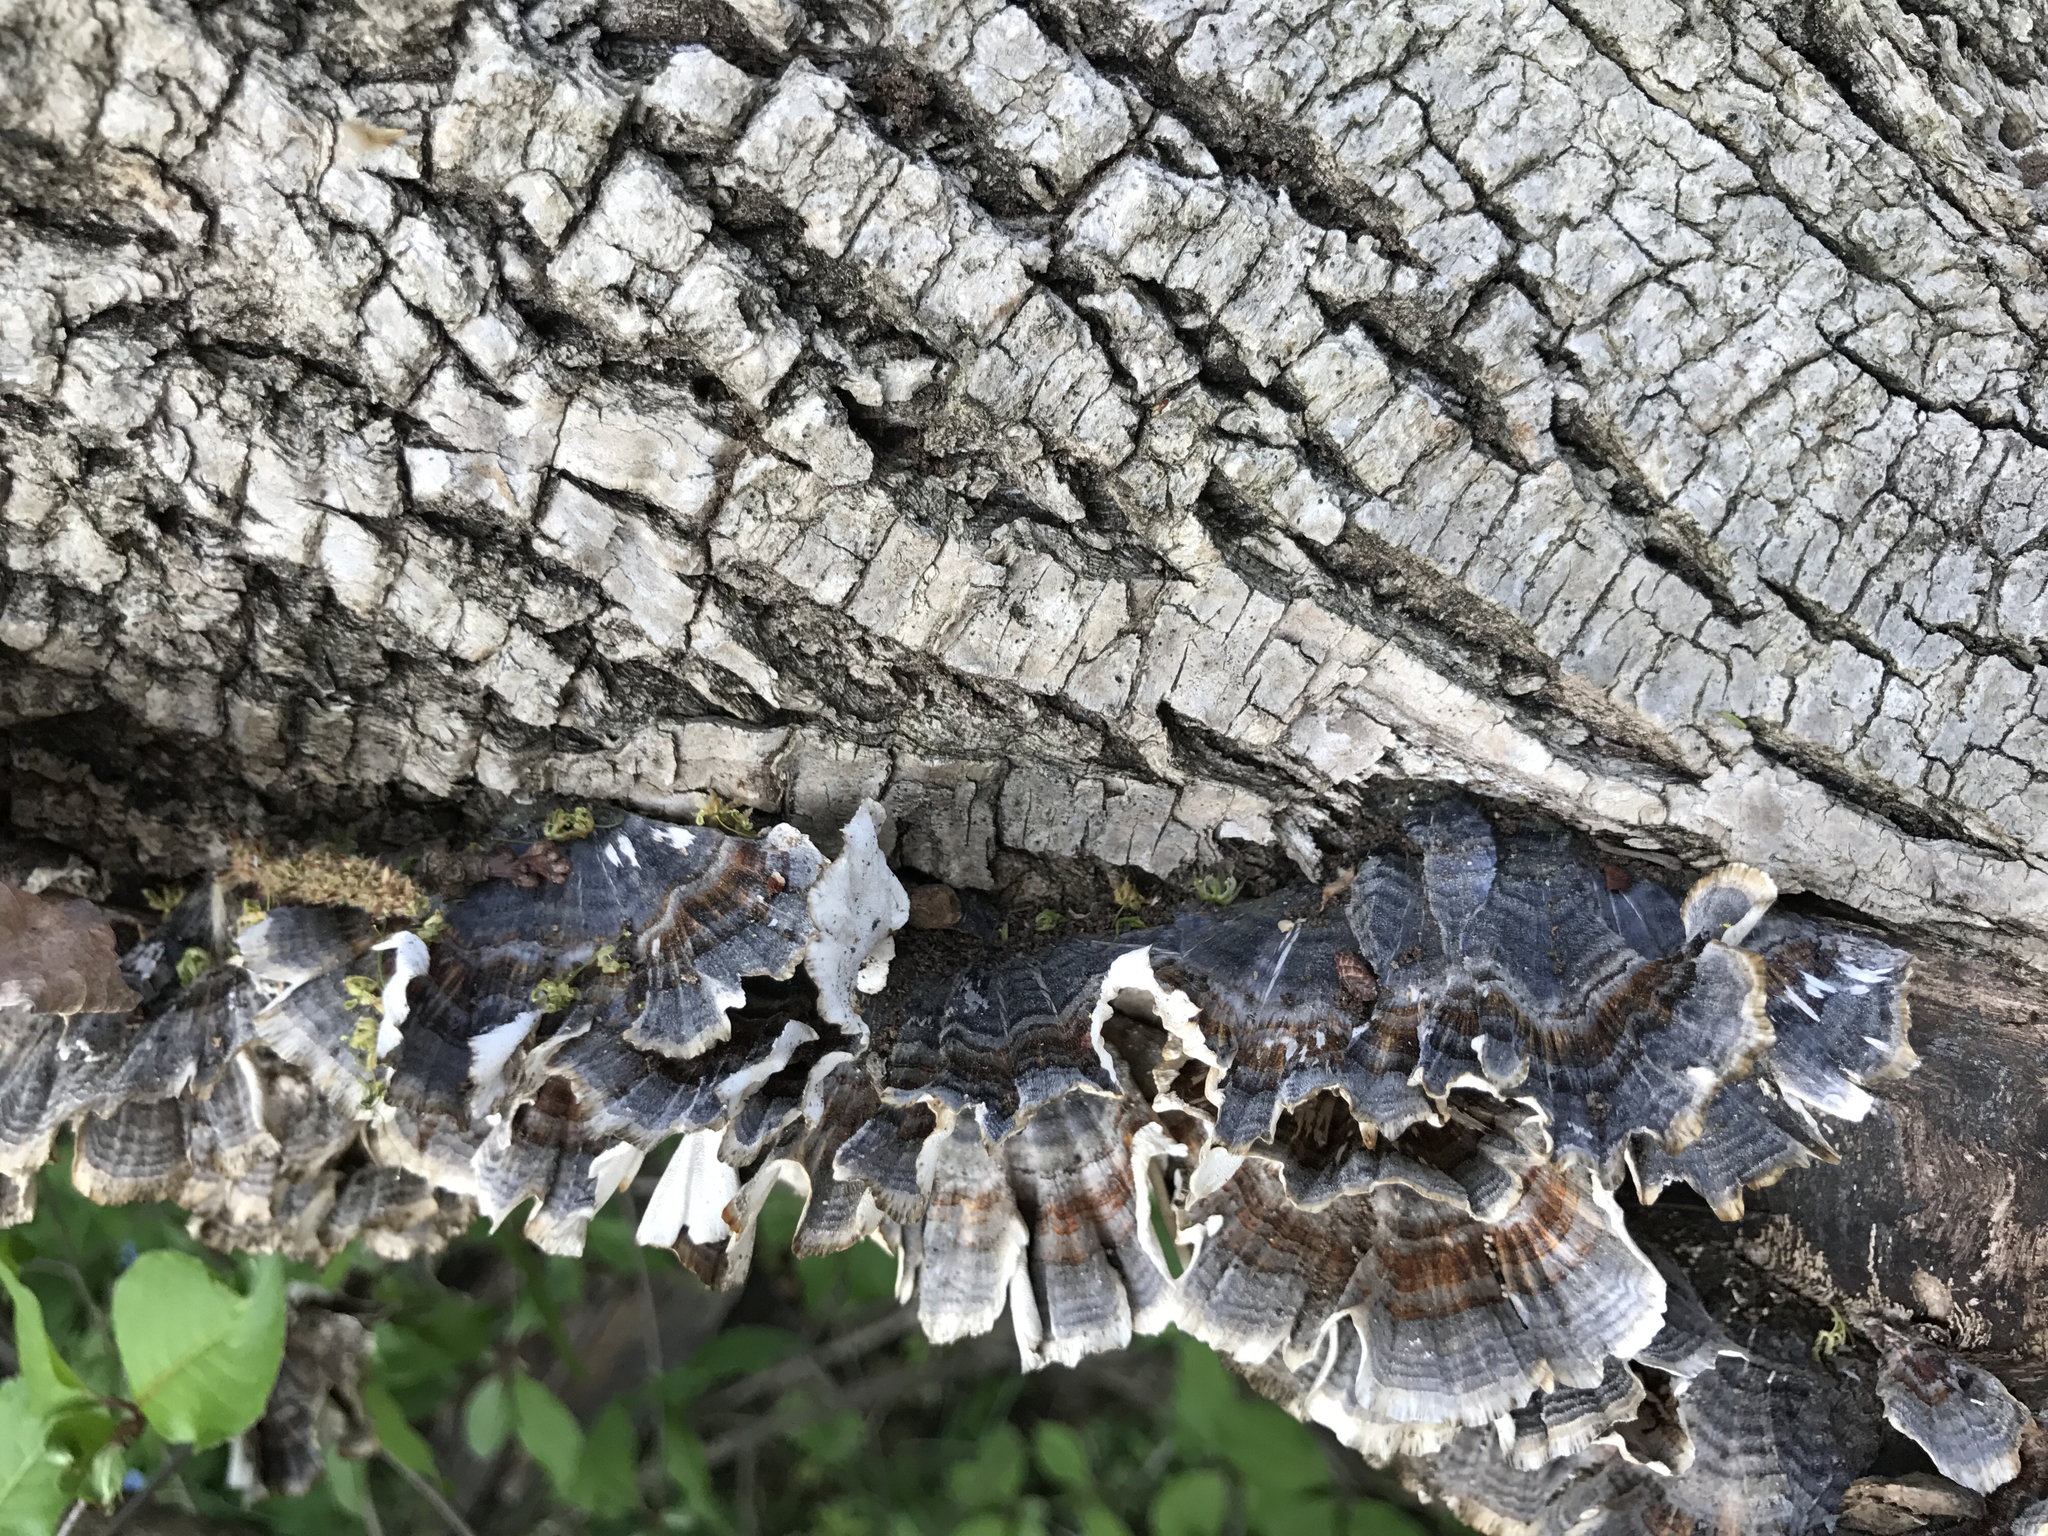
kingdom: Fungi
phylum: Basidiomycota
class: Agaricomycetes
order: Polyporales
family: Polyporaceae
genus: Trametes
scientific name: Trametes versicolor
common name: Turkeytail
